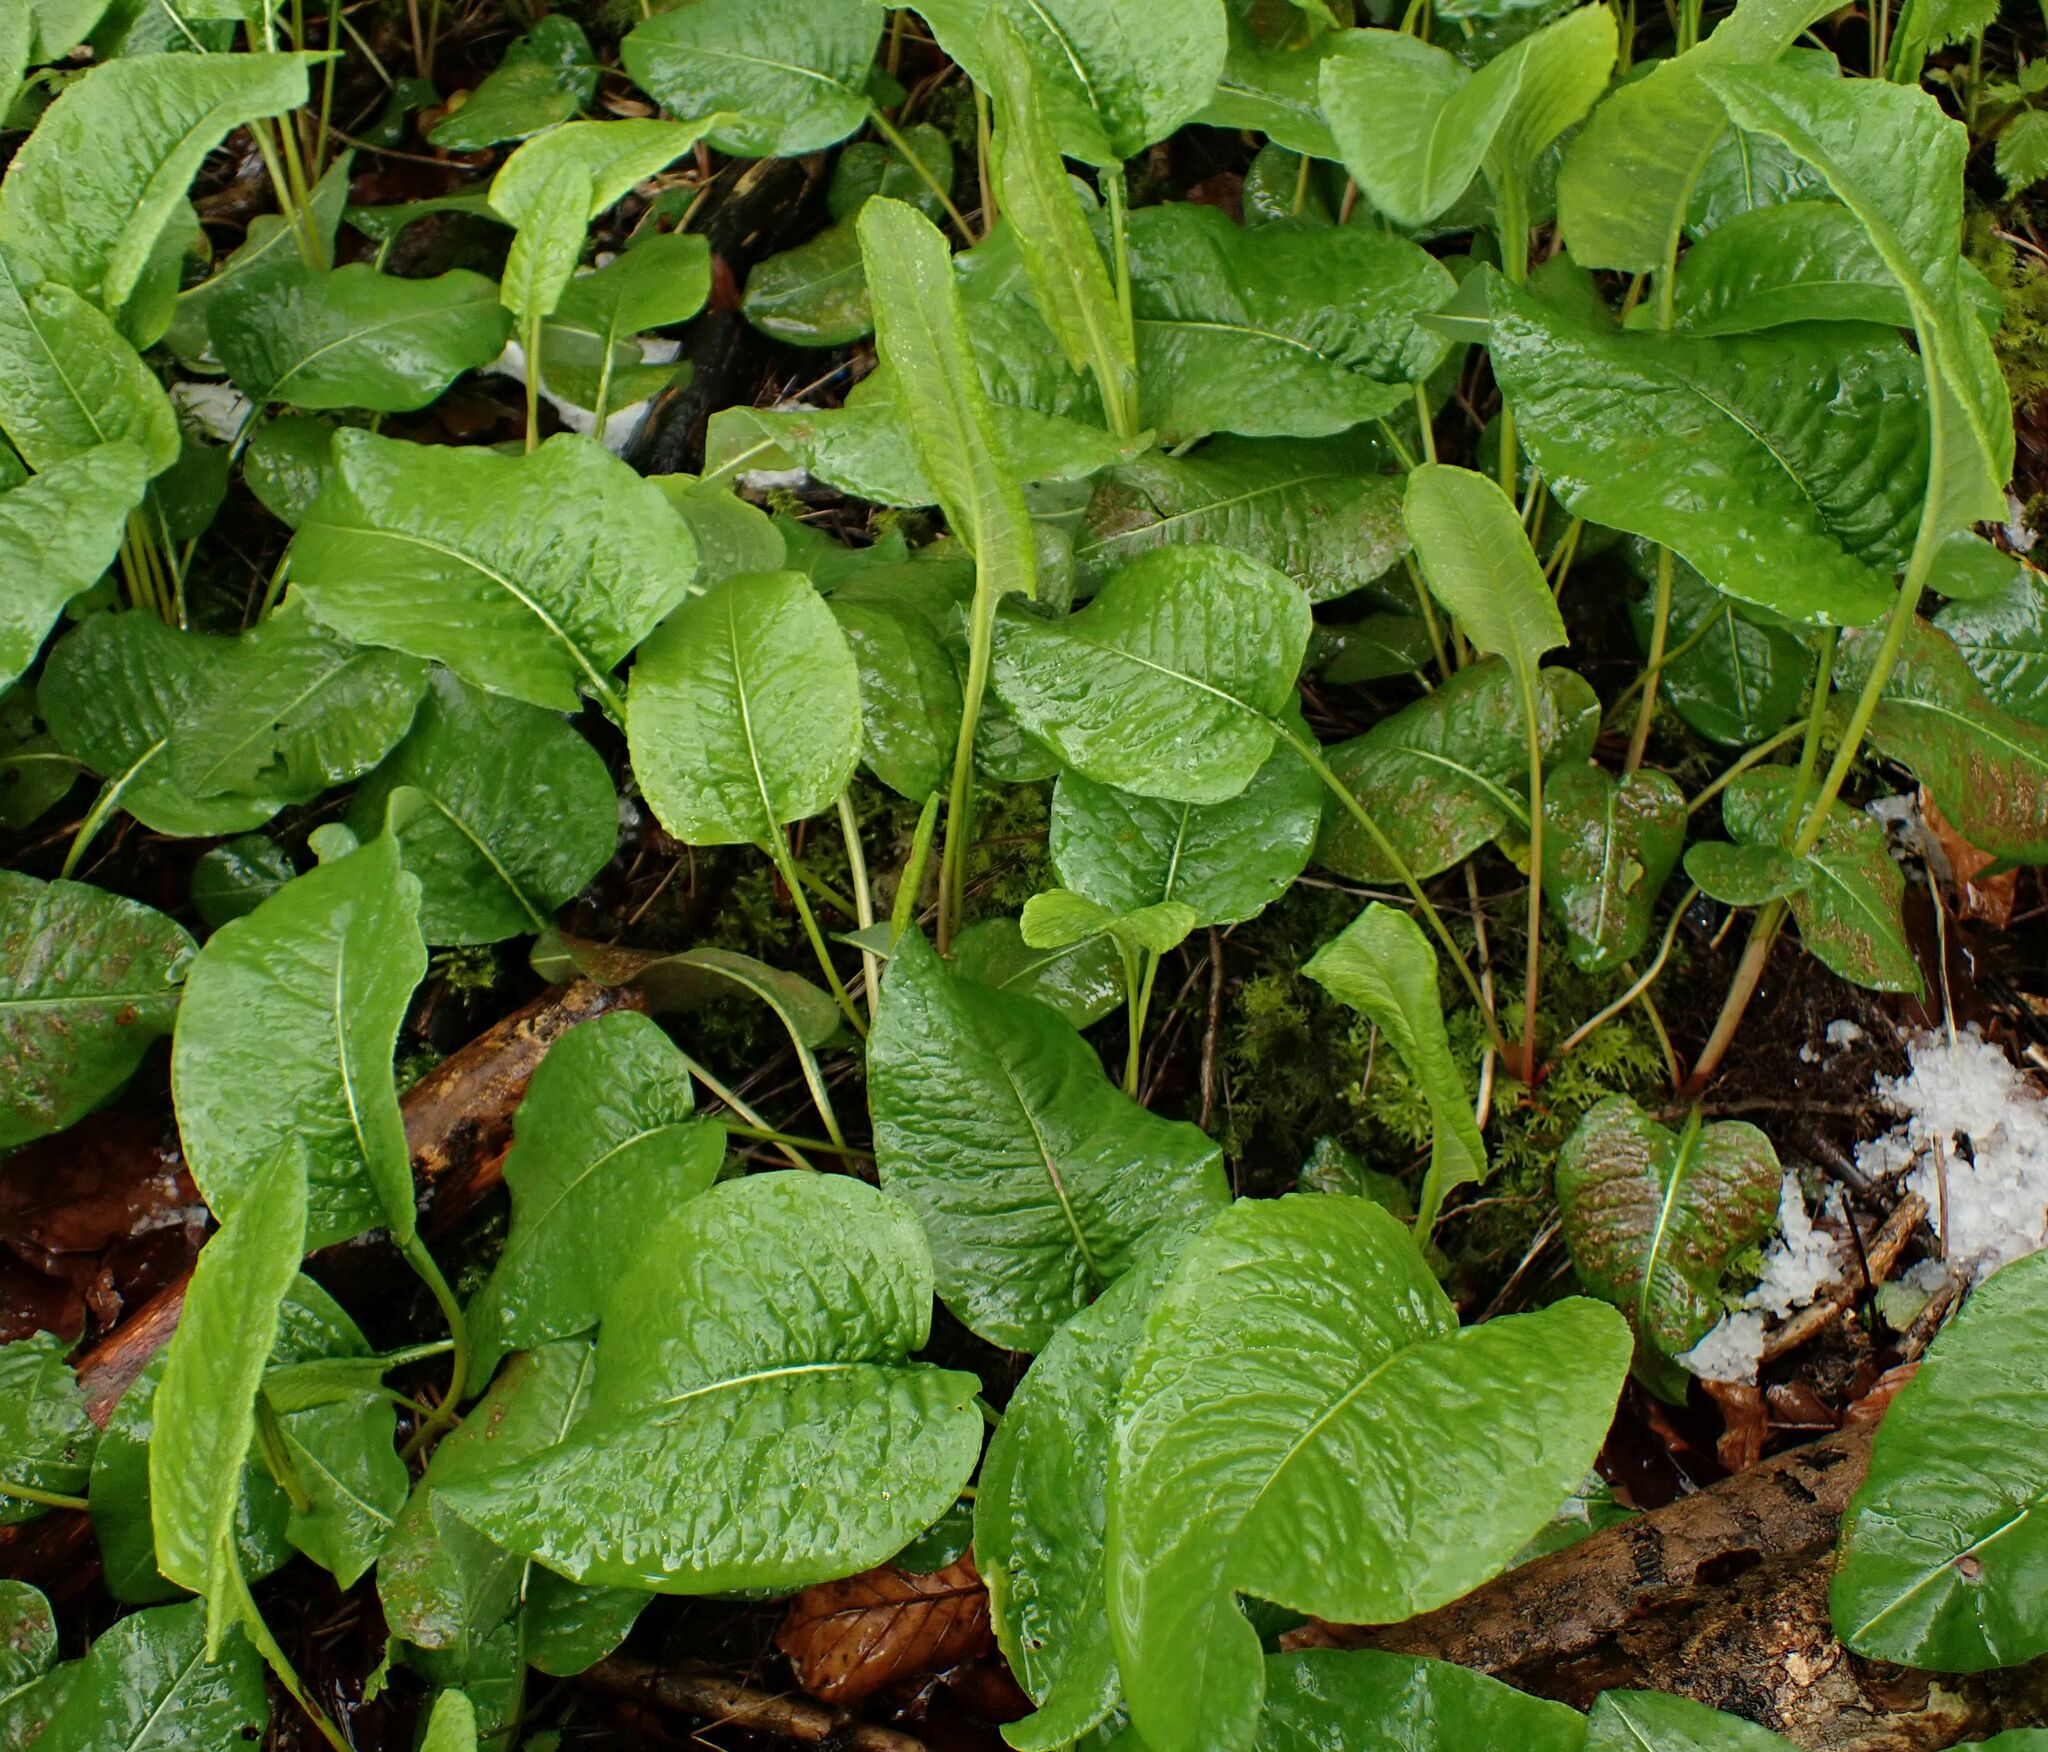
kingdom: Plantae
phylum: Tracheophyta
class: Magnoliopsida
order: Caryophyllales
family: Polygonaceae
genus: Bistorta
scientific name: Bistorta officinalis
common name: Common bistort
